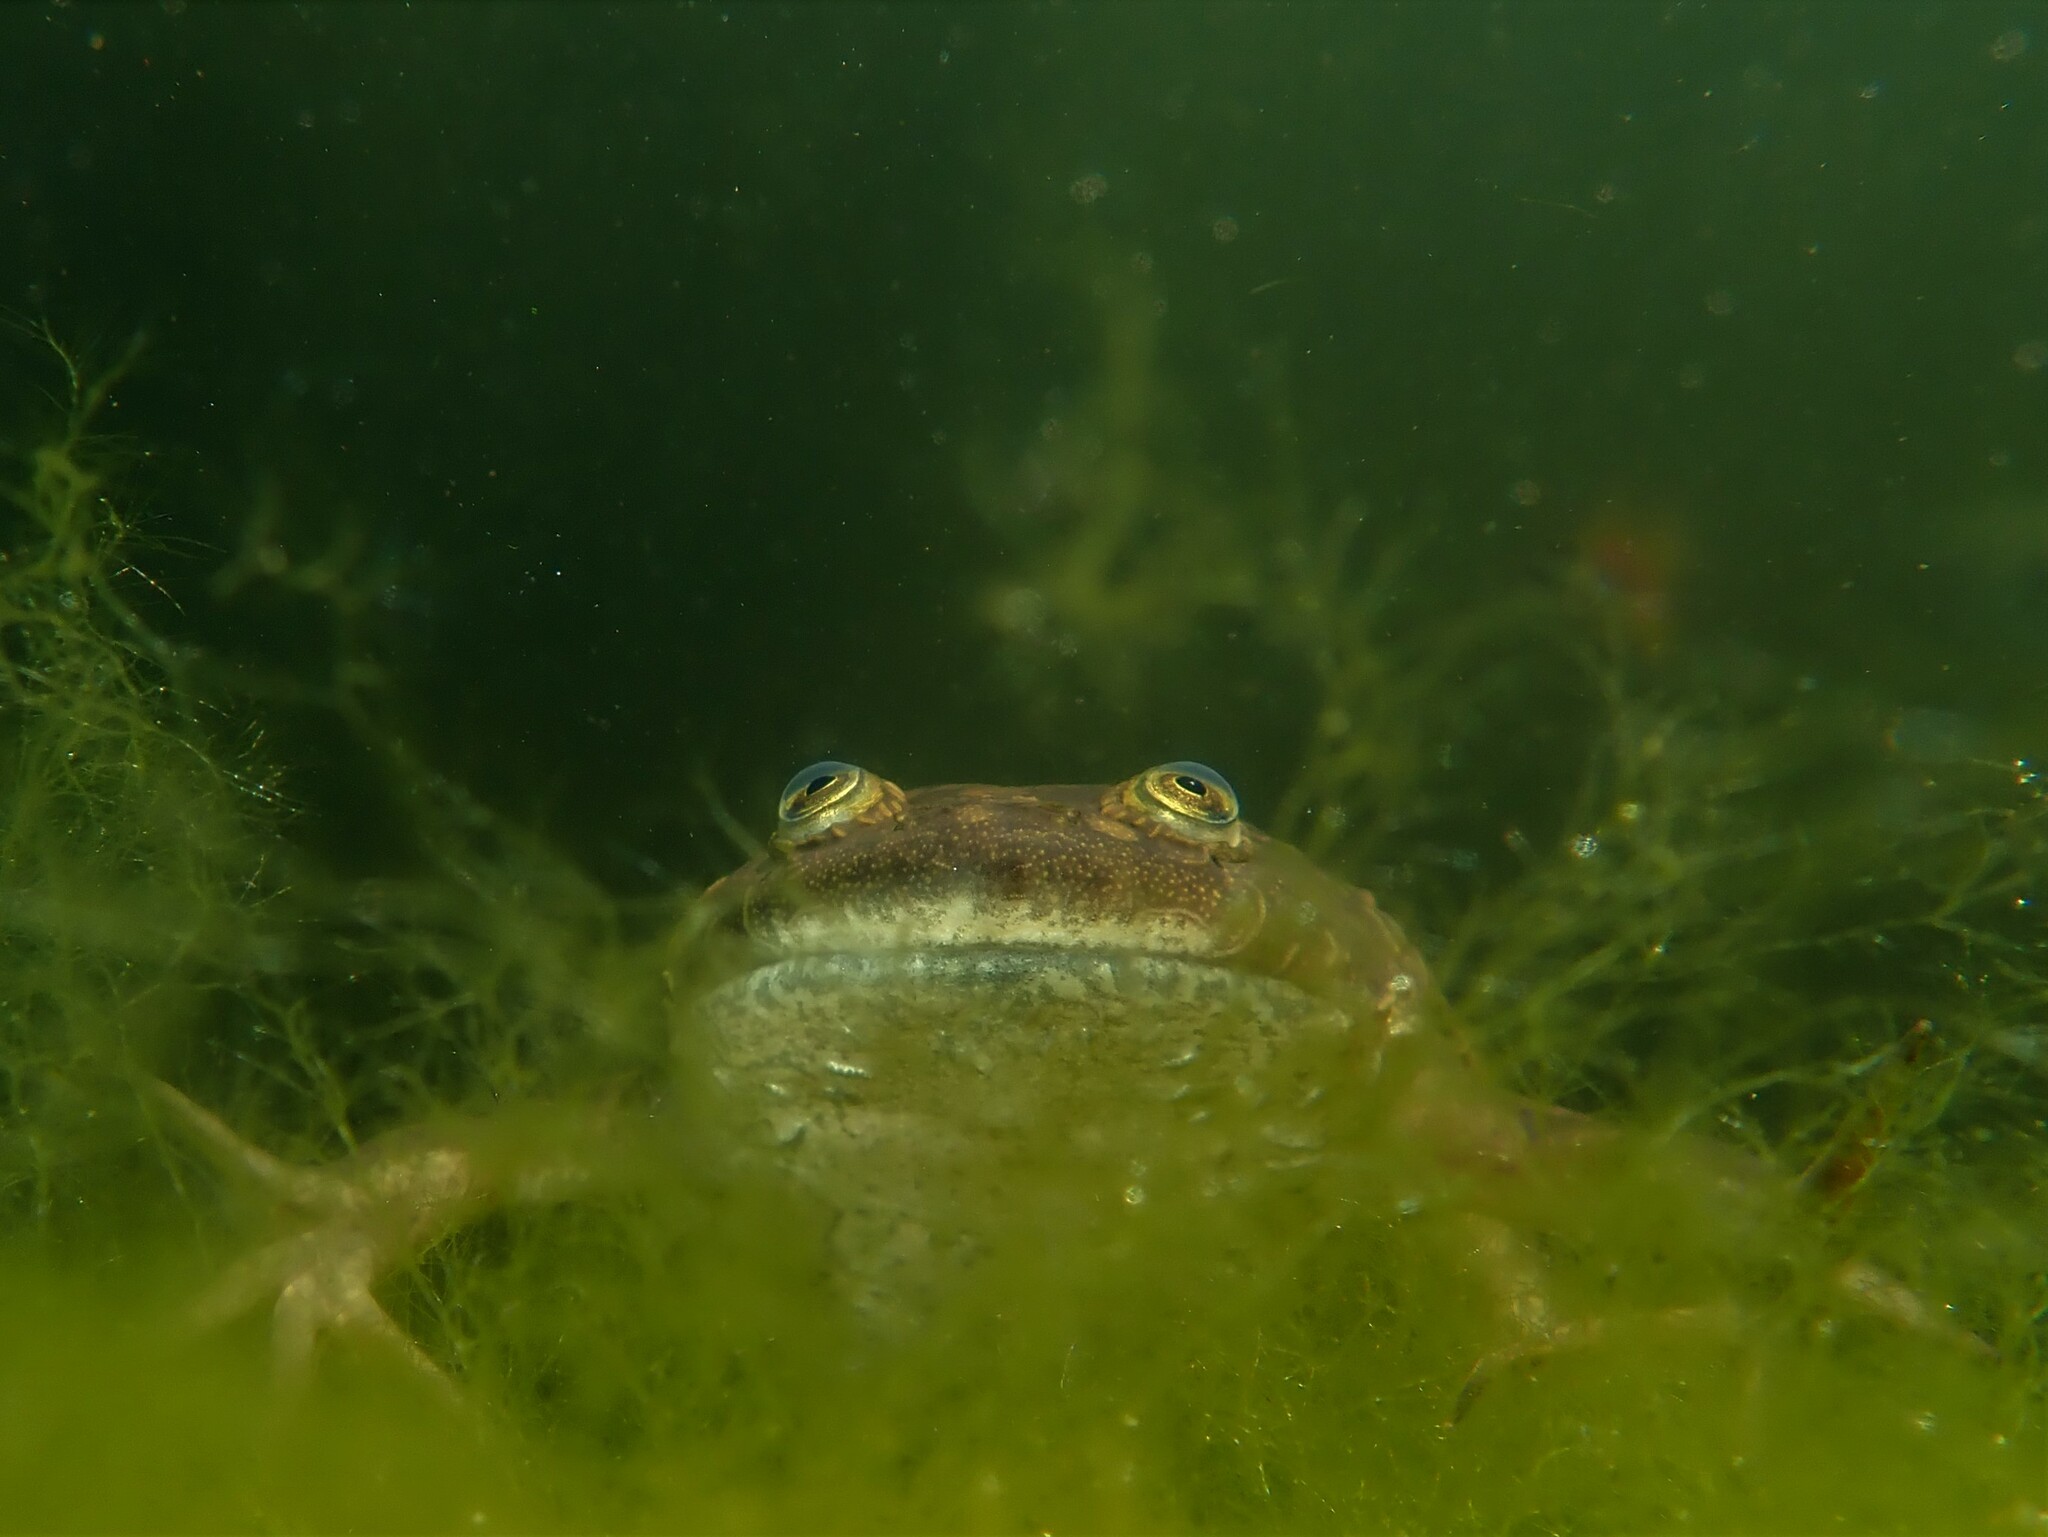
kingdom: Animalia
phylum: Chordata
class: Amphibia
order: Anura
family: Pipidae
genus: Xenopus
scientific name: Xenopus laevis
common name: African clawed frog
